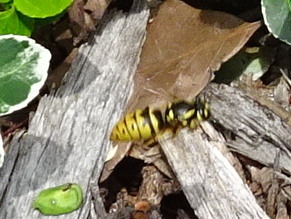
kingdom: Animalia
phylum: Arthropoda
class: Insecta
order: Hymenoptera
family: Vespidae
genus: Vespula
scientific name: Vespula flavopilosa
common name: Downy yellowjacket
